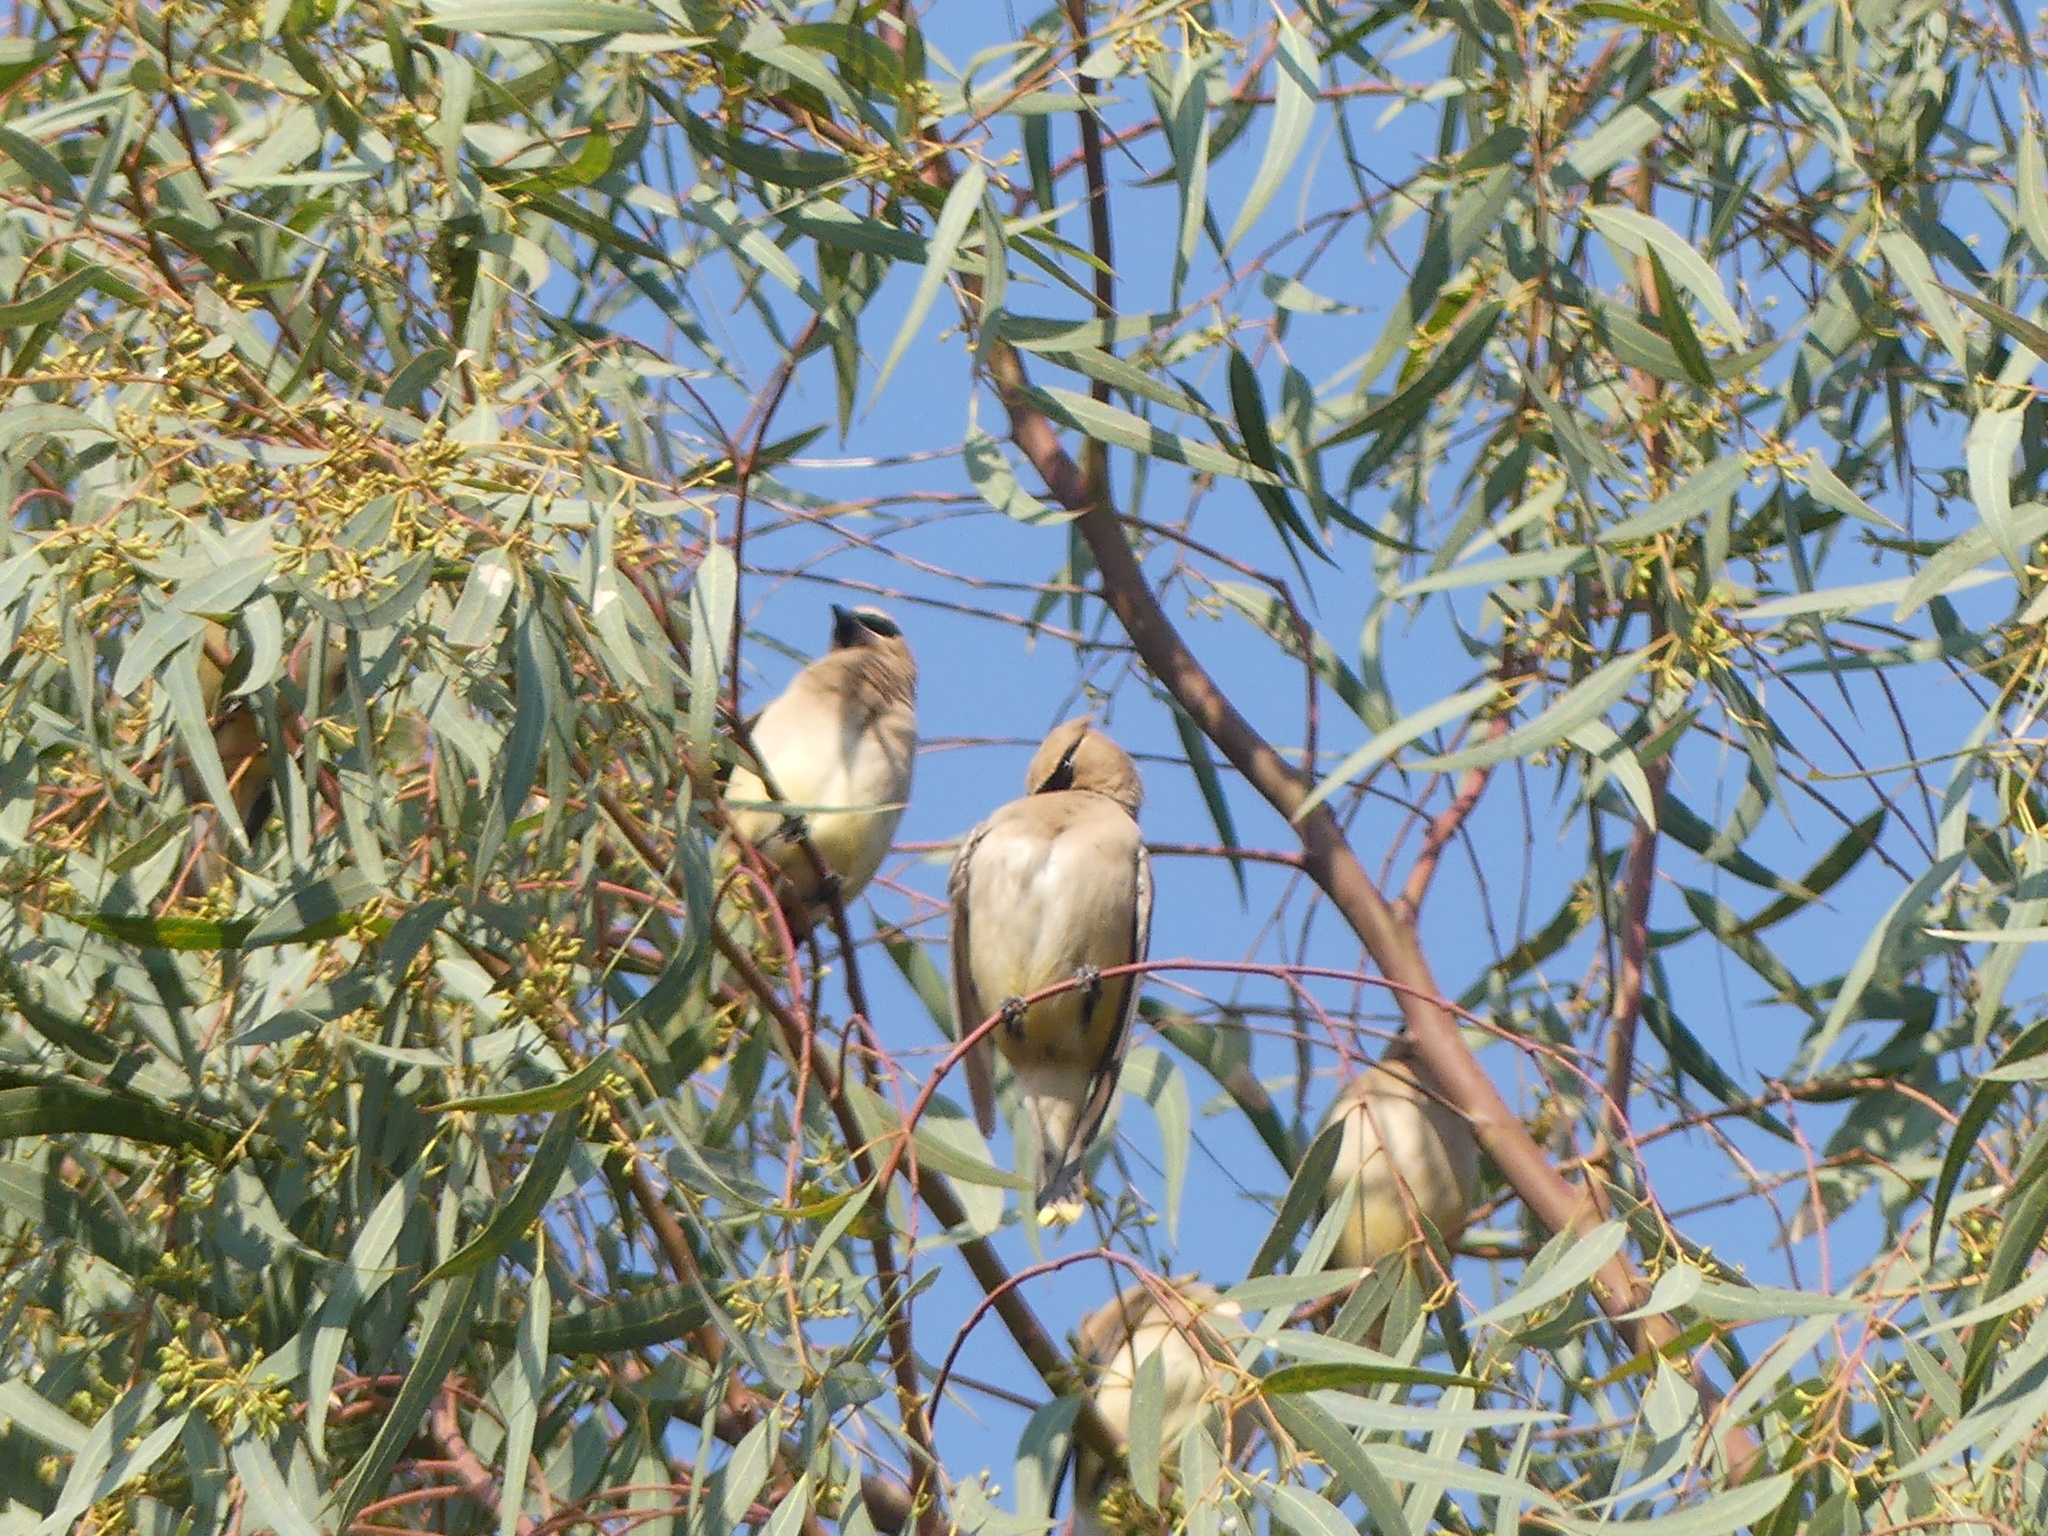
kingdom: Animalia
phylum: Chordata
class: Aves
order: Passeriformes
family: Bombycillidae
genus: Bombycilla
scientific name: Bombycilla cedrorum
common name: Cedar waxwing
